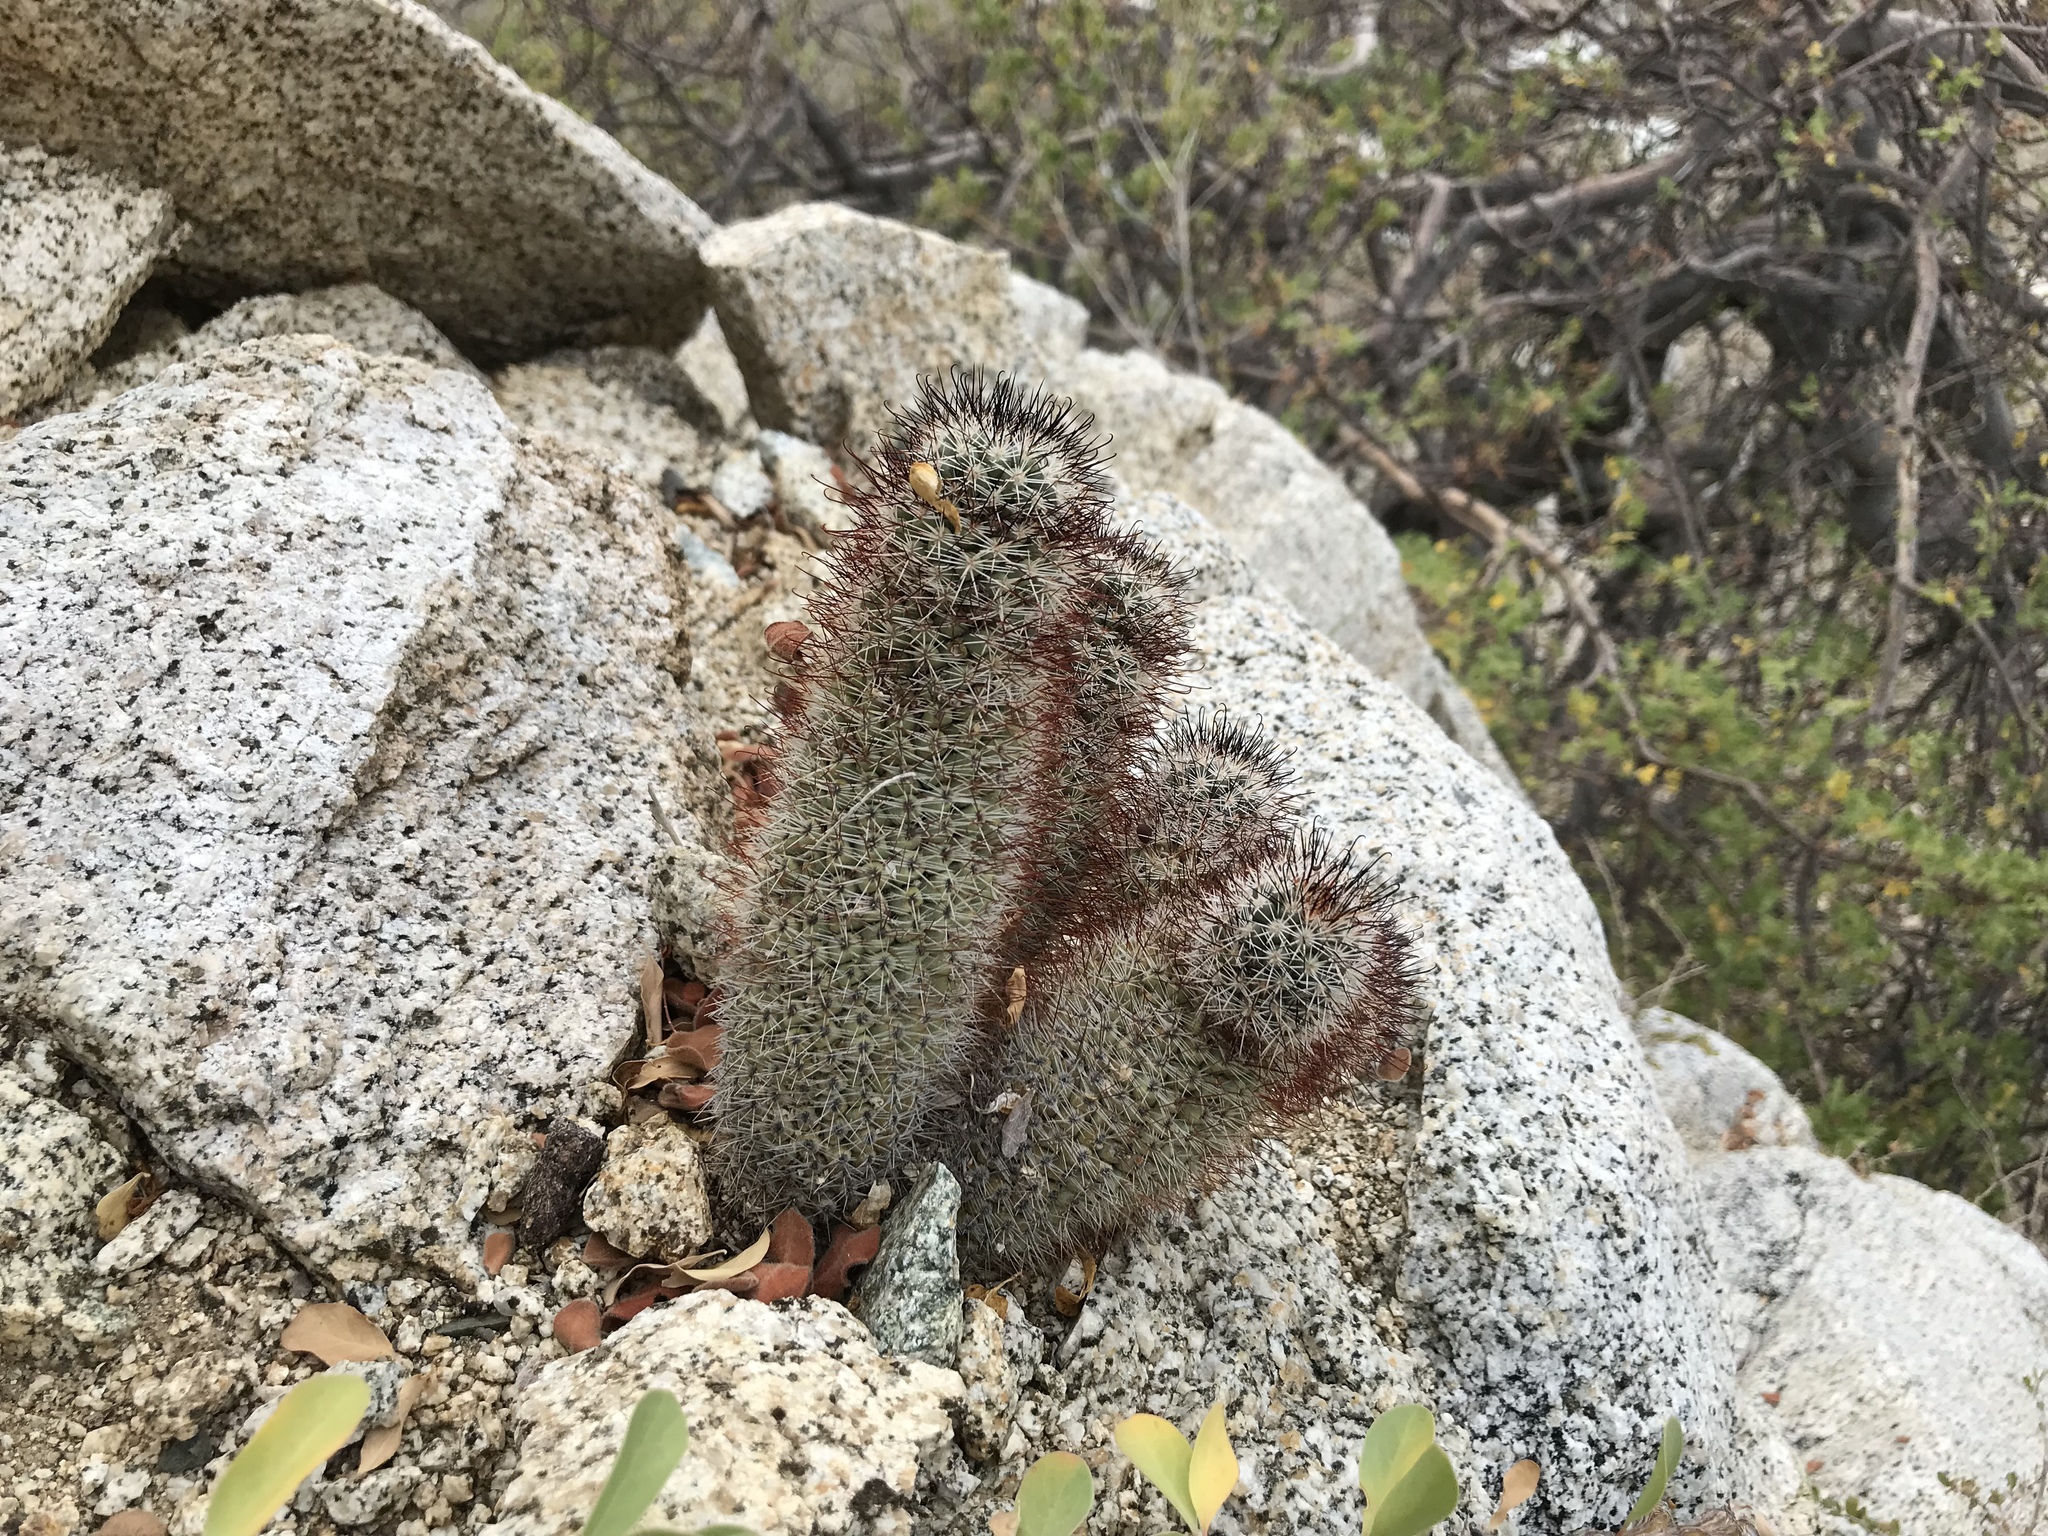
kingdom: Plantae
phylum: Tracheophyta
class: Magnoliopsida
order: Caryophyllales
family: Cactaceae
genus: Cochemiea
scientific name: Cochemiea armillata
